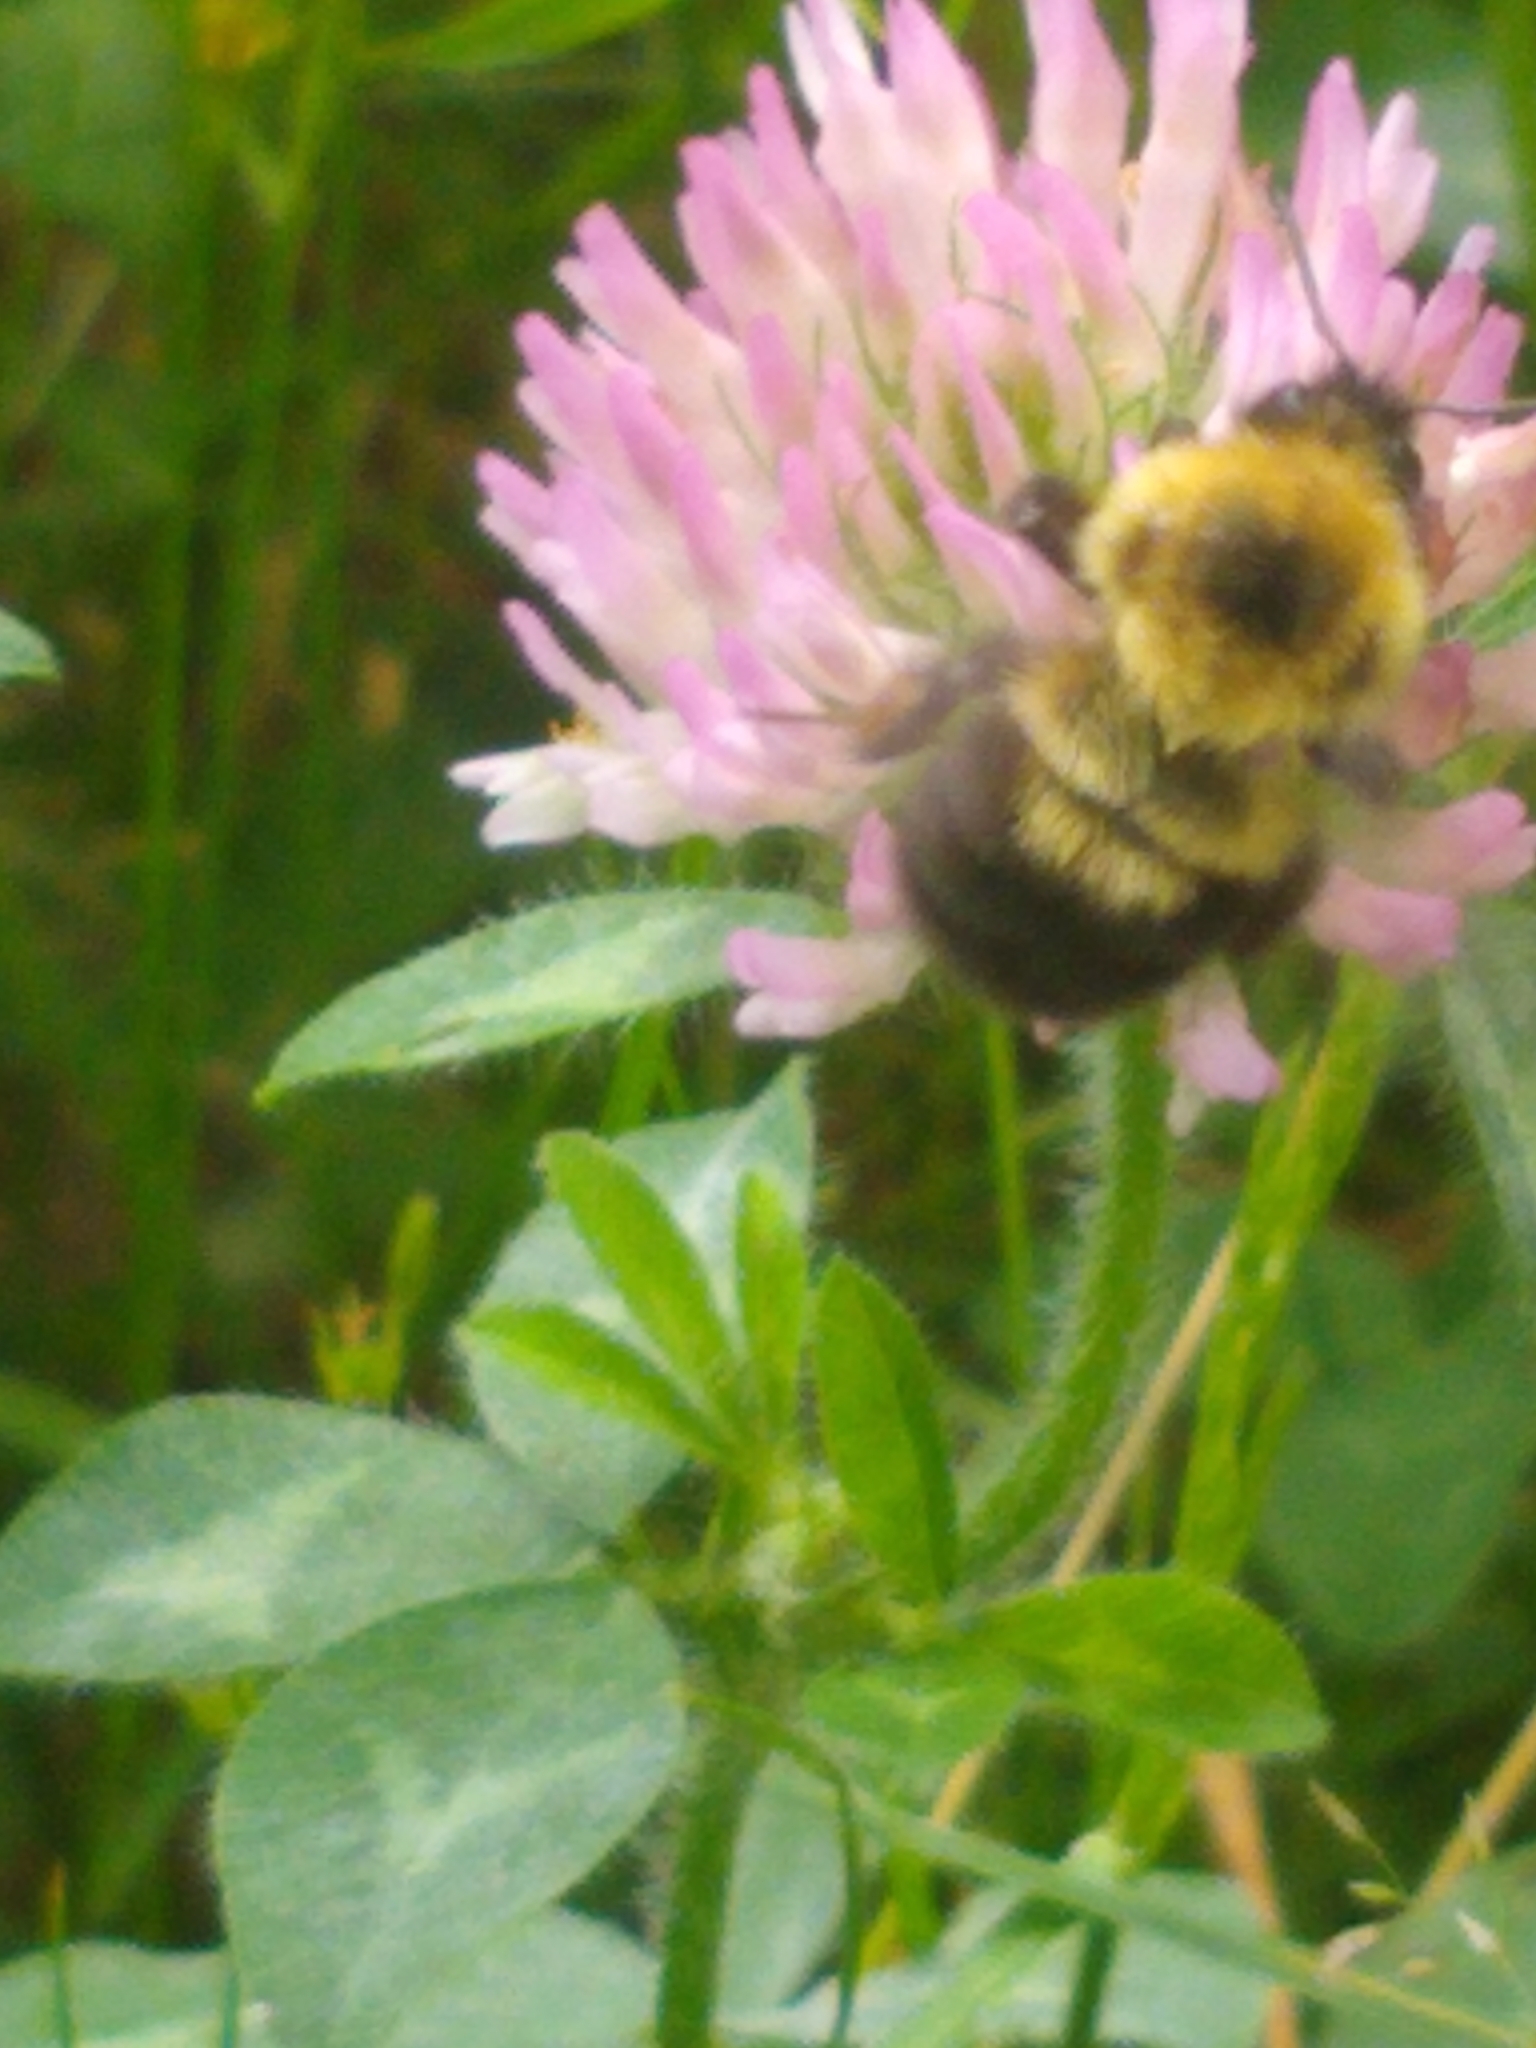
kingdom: Animalia
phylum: Arthropoda
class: Insecta
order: Hymenoptera
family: Apidae
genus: Bombus
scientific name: Bombus bimaculatus
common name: Two-spotted bumble bee
